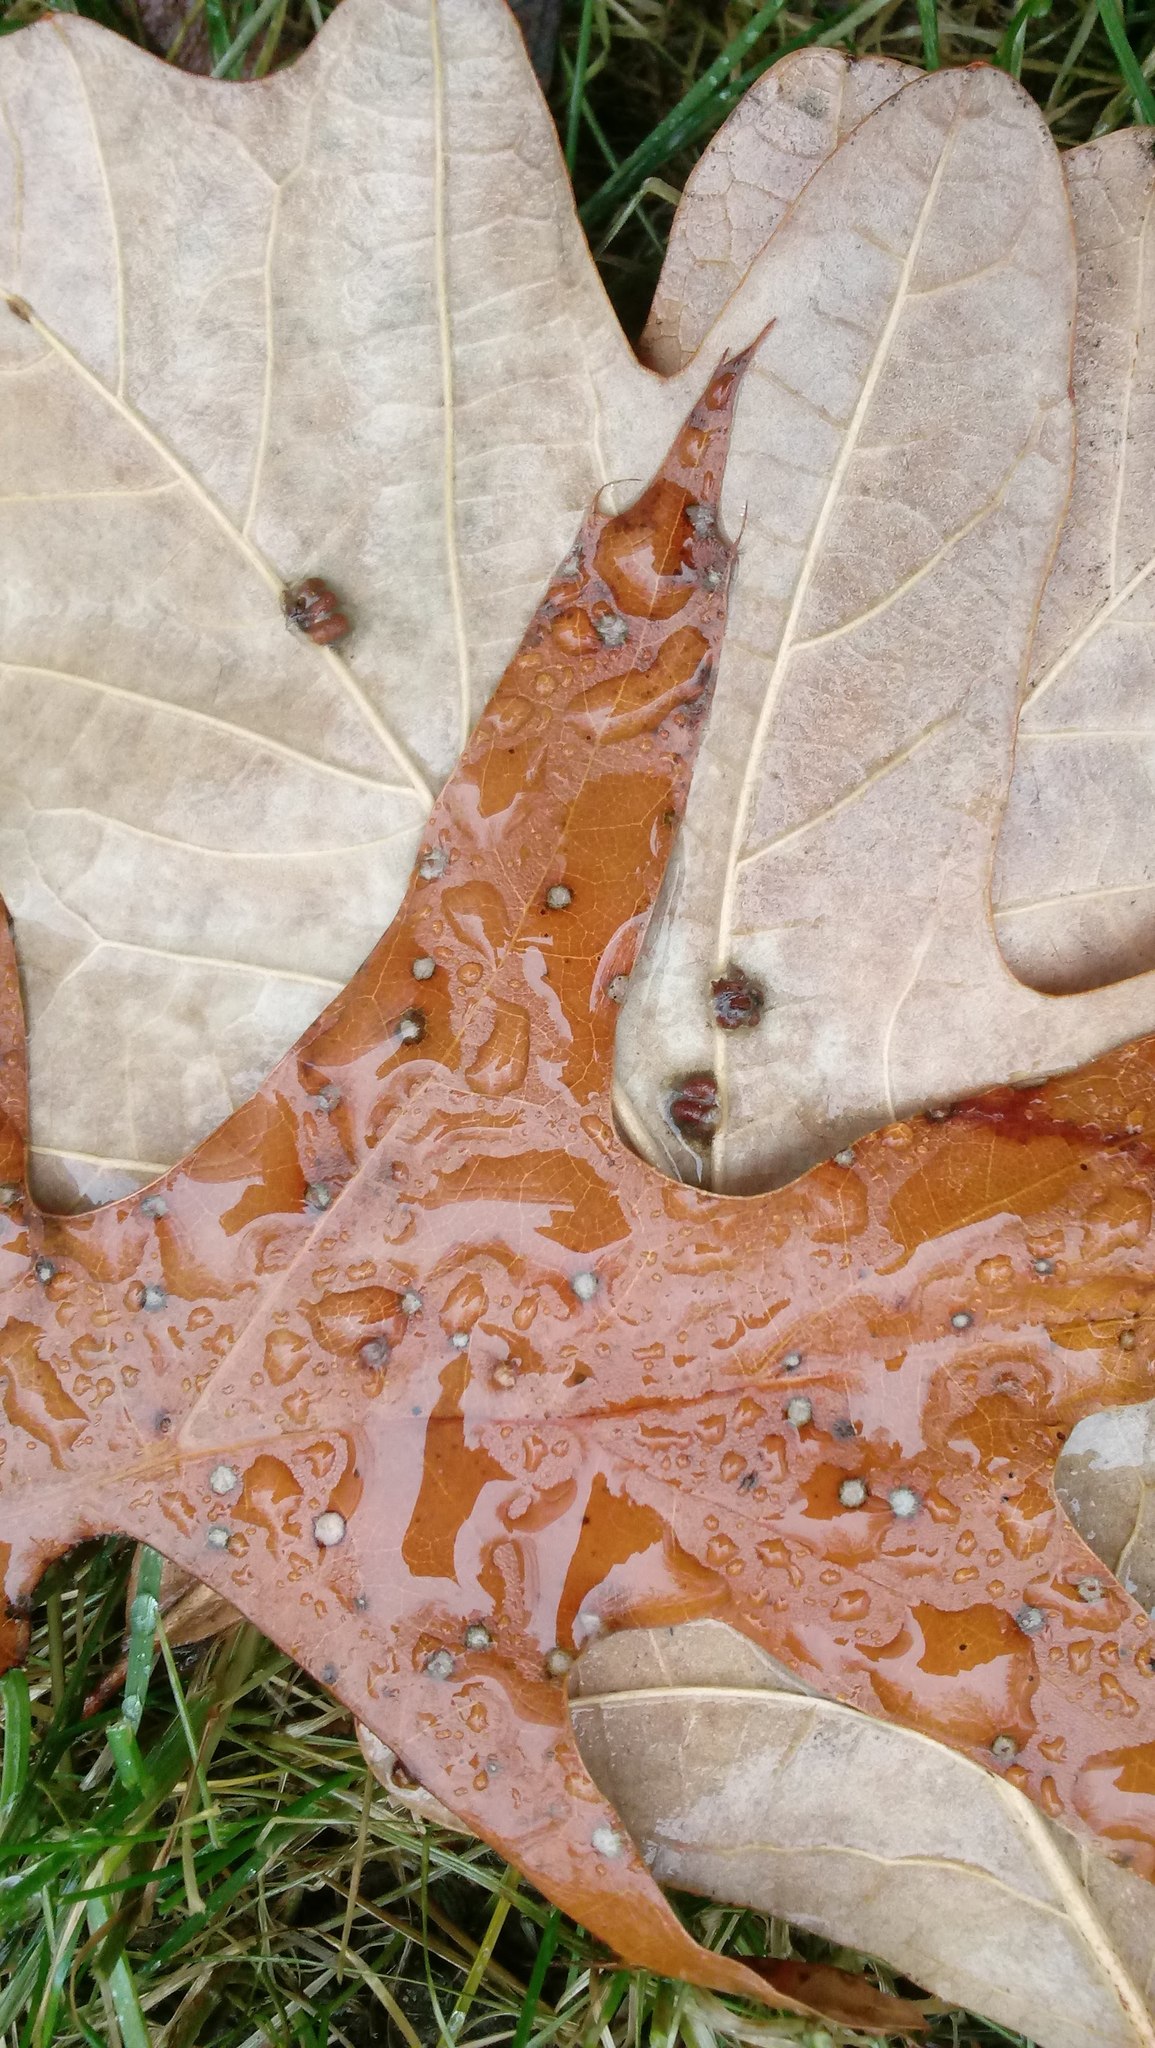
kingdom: Animalia
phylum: Arthropoda
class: Insecta
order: Hymenoptera
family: Cynipidae
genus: Andricus
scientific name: Andricus Druon ignotum
